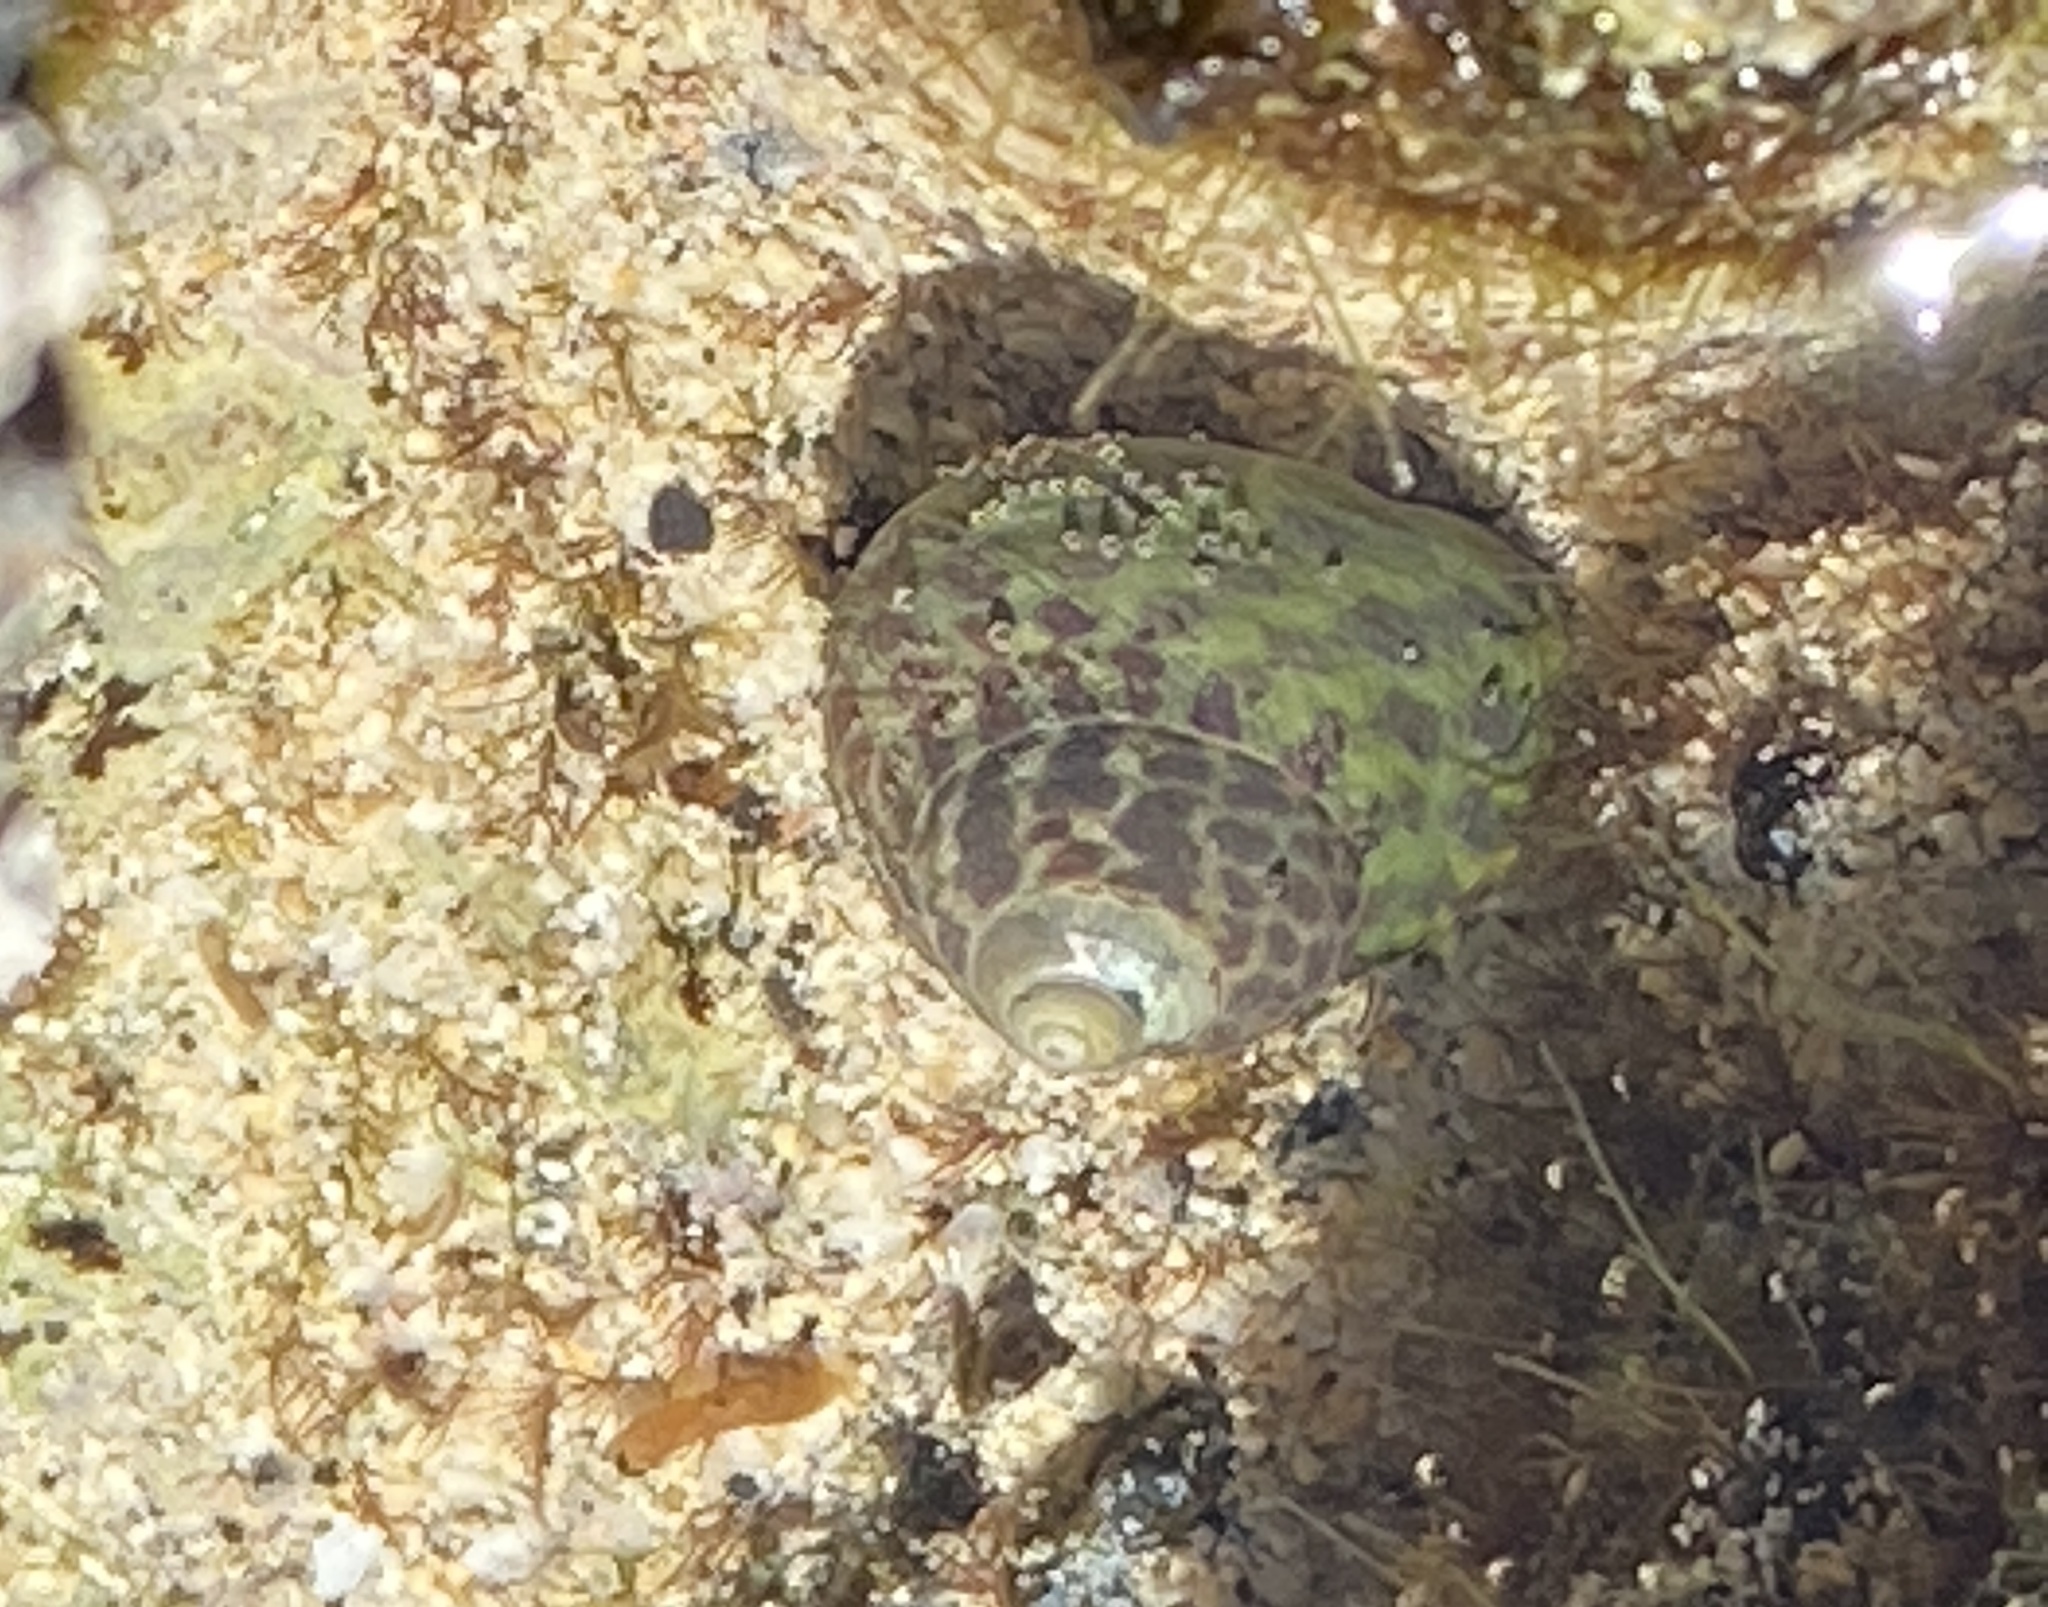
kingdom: Animalia
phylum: Mollusca
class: Gastropoda
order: Trochida
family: Trochidae
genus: Phorcus
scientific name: Phorcus sauciatus
